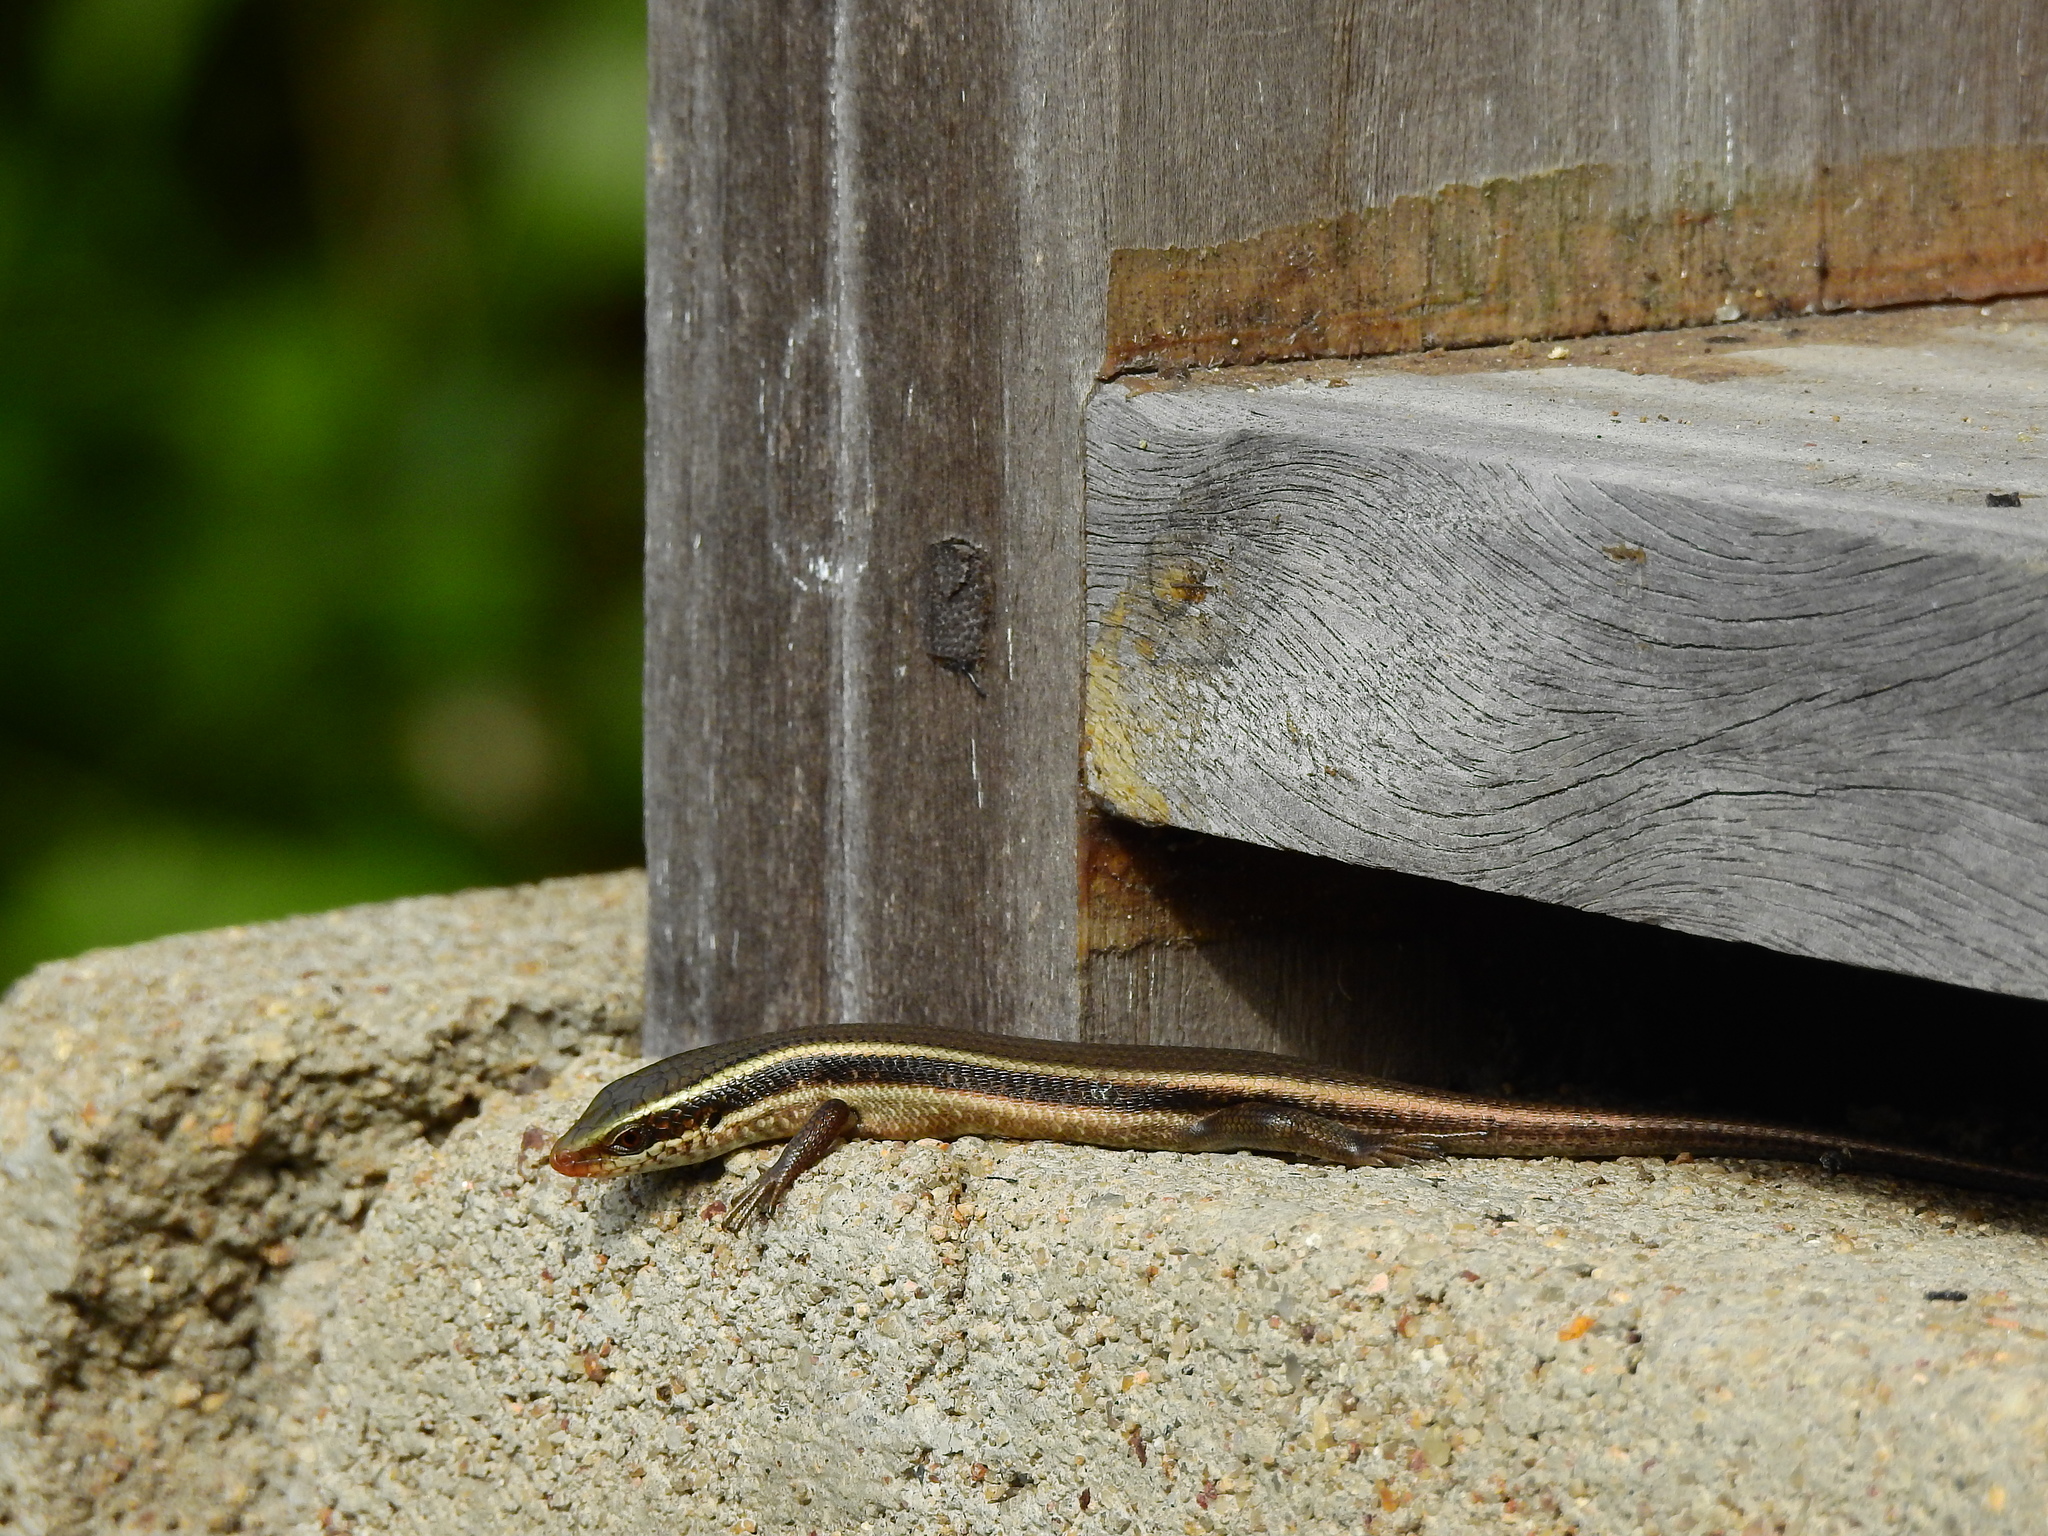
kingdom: Animalia
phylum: Chordata
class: Squamata
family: Scincidae
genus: Eutropis
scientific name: Eutropis carinata
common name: Keeled indian mabuya
